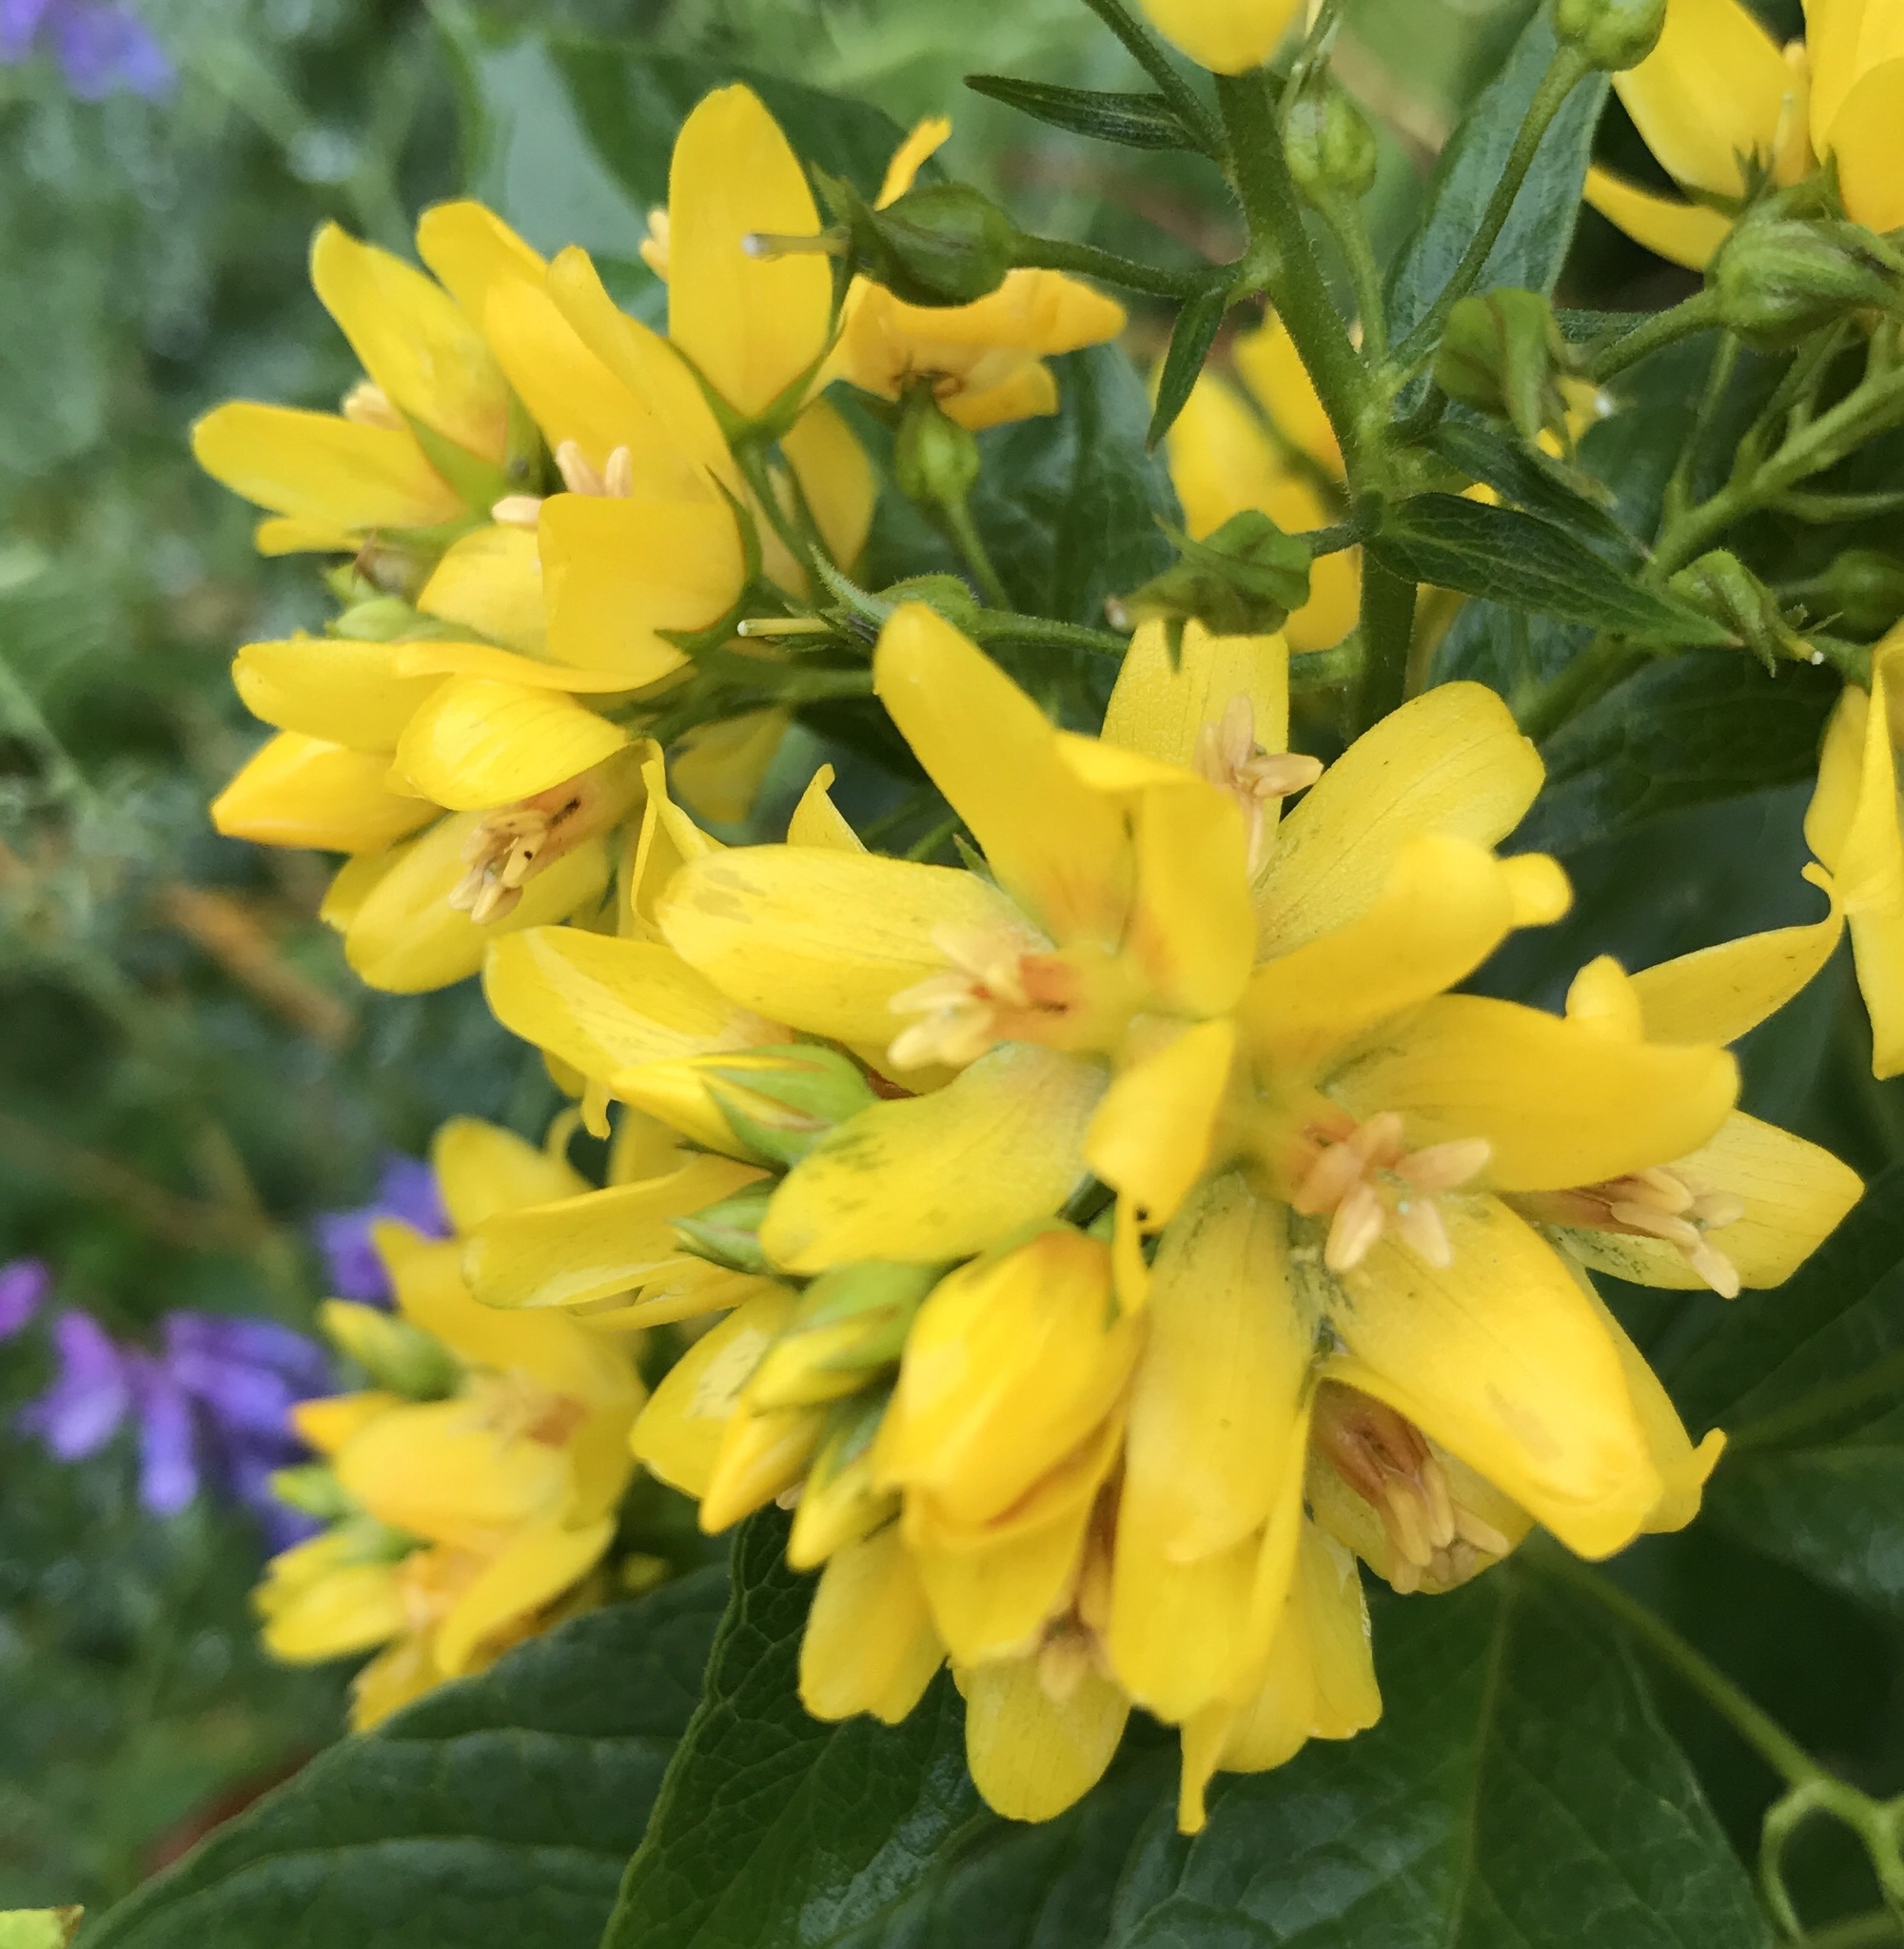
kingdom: Plantae
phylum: Tracheophyta
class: Magnoliopsida
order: Ericales
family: Primulaceae
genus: Lysimachia
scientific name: Lysimachia vulgaris
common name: Yellow loosestrife
